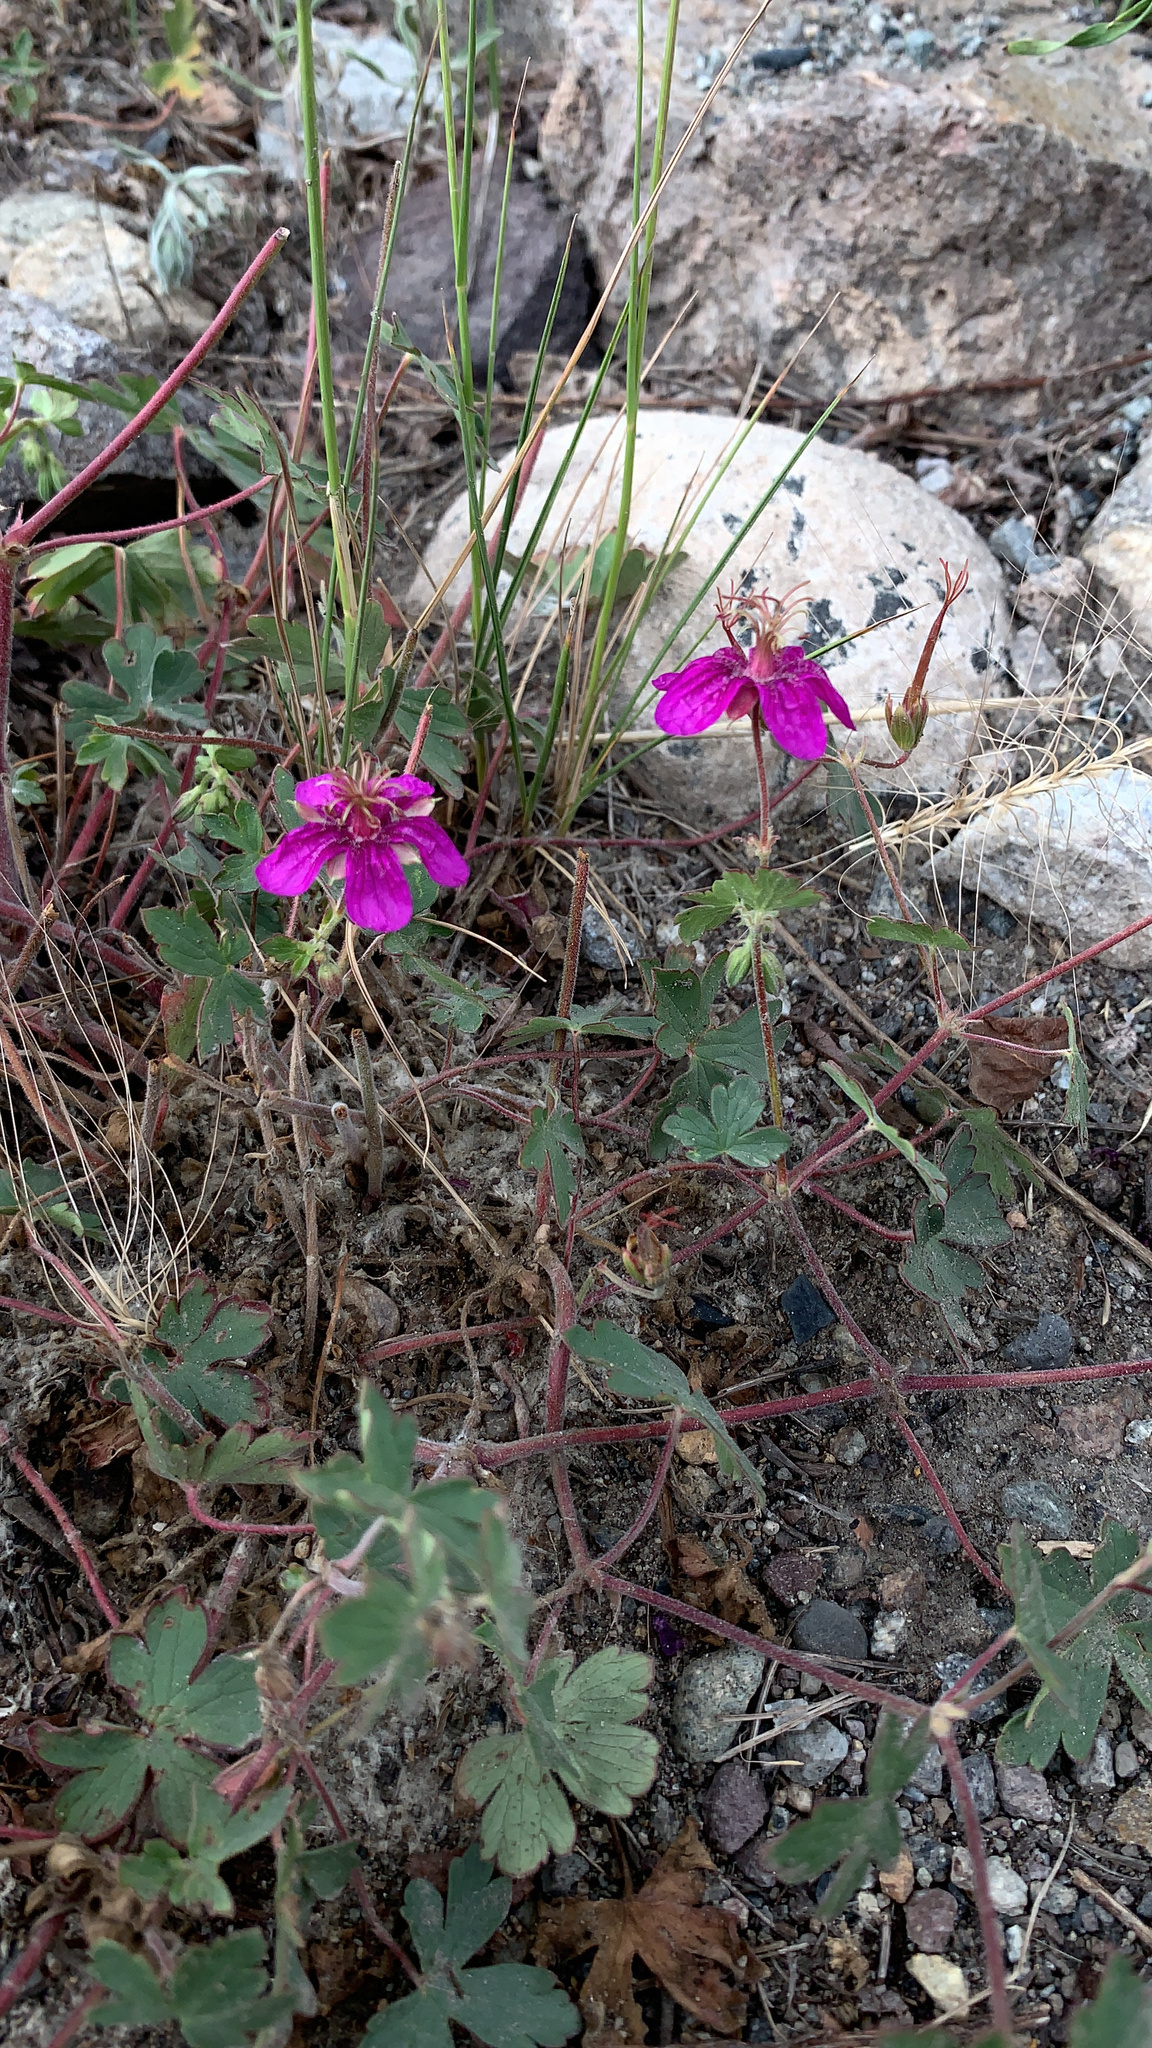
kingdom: Plantae
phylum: Tracheophyta
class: Magnoliopsida
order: Geraniales
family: Geraniaceae
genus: Geranium
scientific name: Geranium caespitosum
